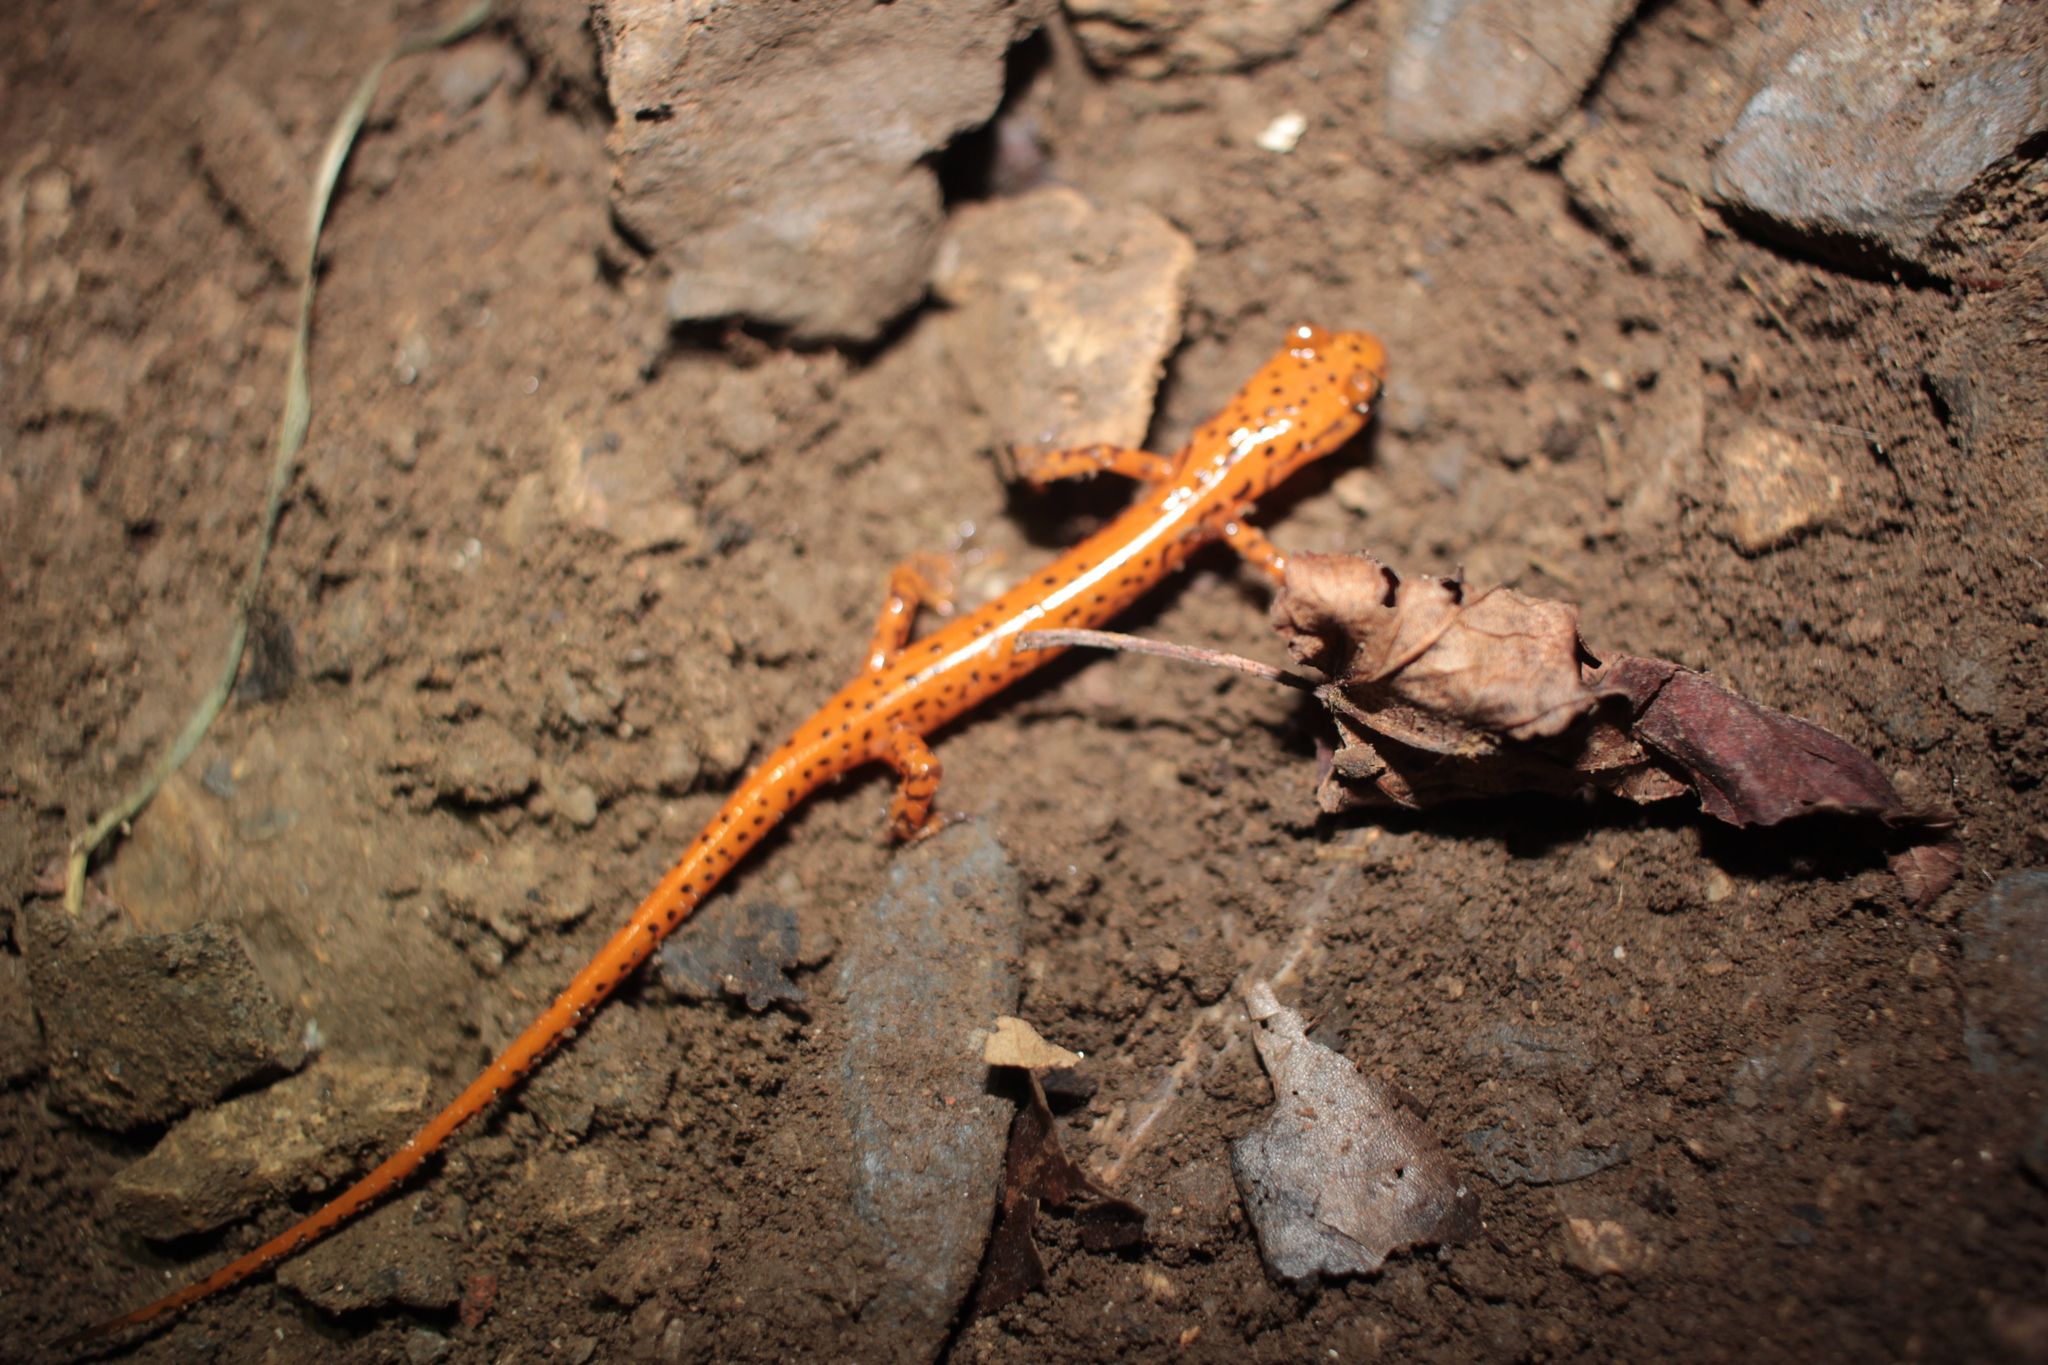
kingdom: Animalia
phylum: Chordata
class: Amphibia
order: Caudata
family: Plethodontidae
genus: Eurycea
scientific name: Eurycea lucifuga
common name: Cave salamander
